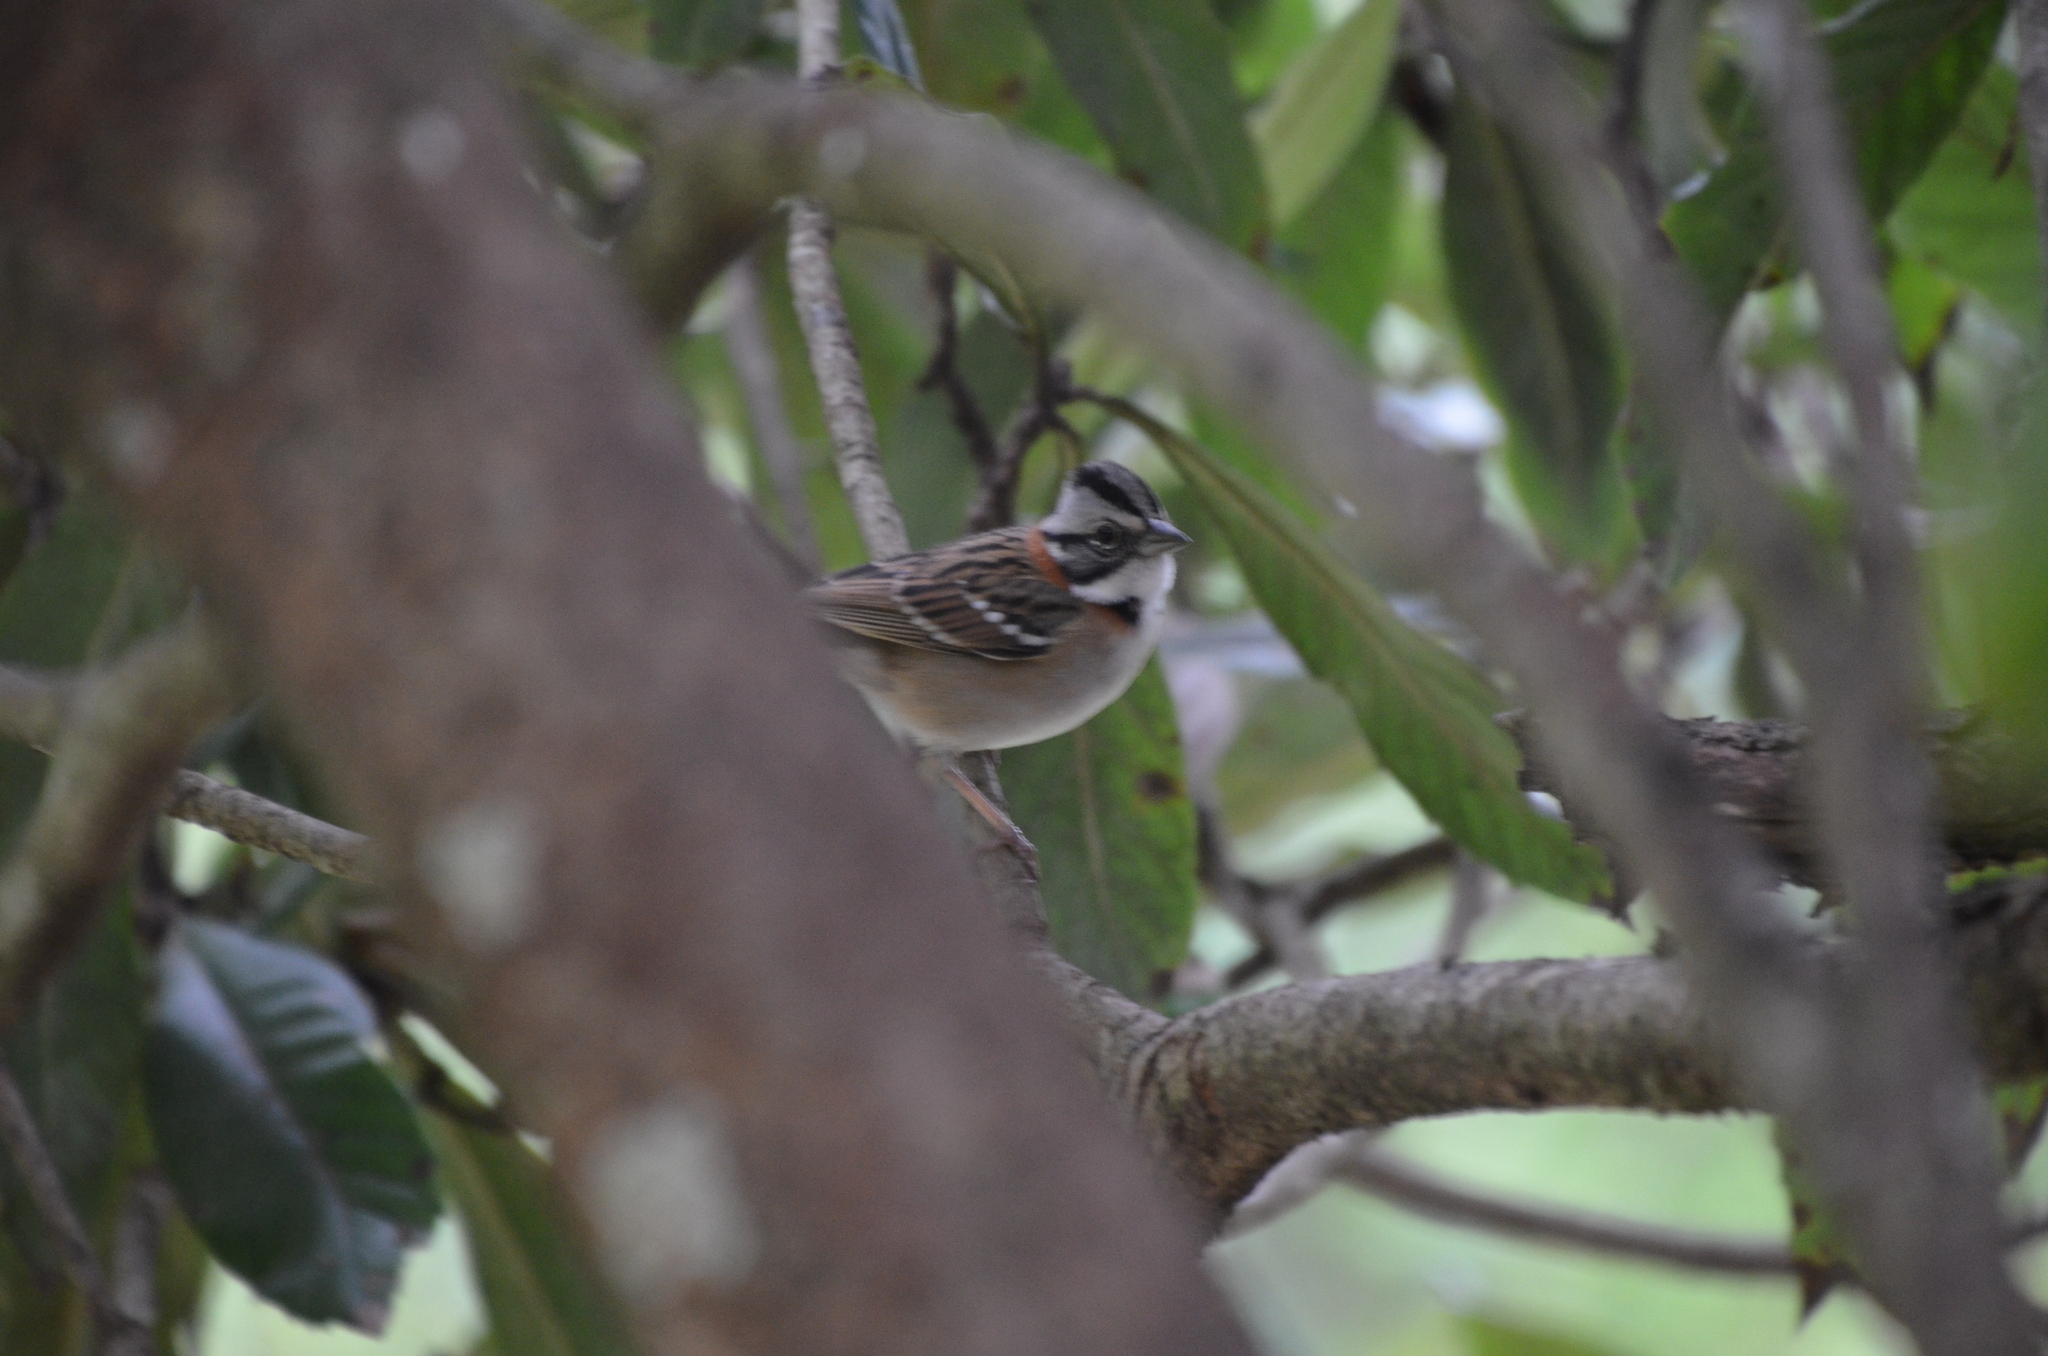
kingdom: Animalia
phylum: Chordata
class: Aves
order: Passeriformes
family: Passerellidae
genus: Zonotrichia
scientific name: Zonotrichia capensis
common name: Rufous-collared sparrow
